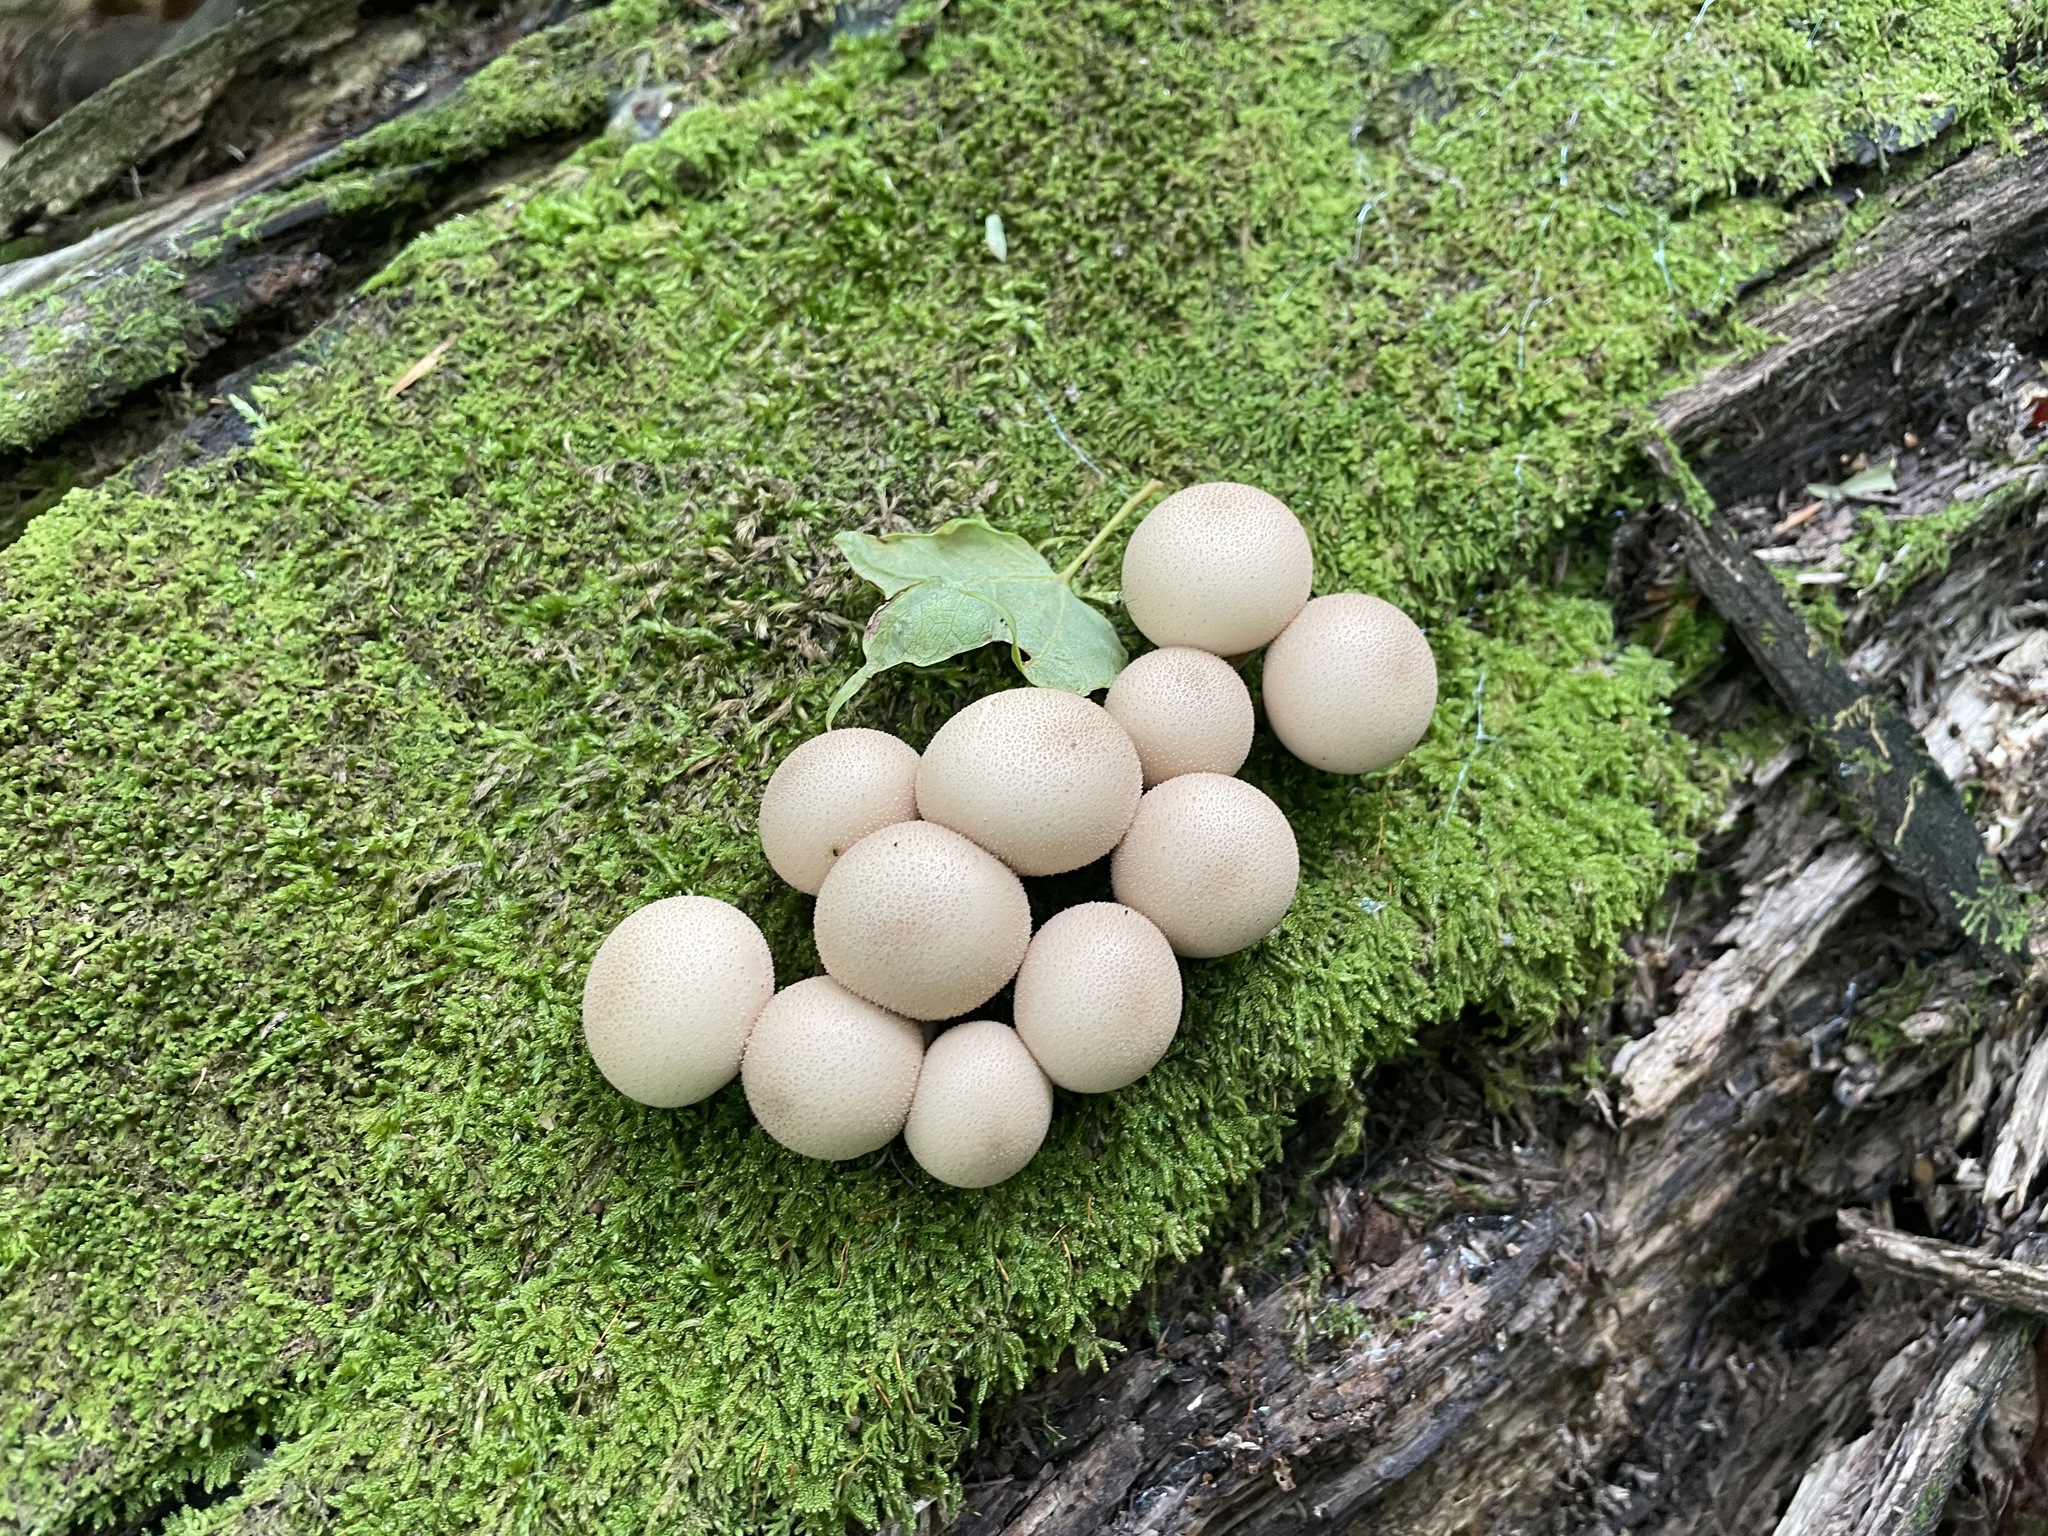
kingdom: Fungi
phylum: Basidiomycota
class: Agaricomycetes
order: Agaricales
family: Lycoperdaceae
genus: Apioperdon
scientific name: Apioperdon pyriforme
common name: Pear-shaped puffball
